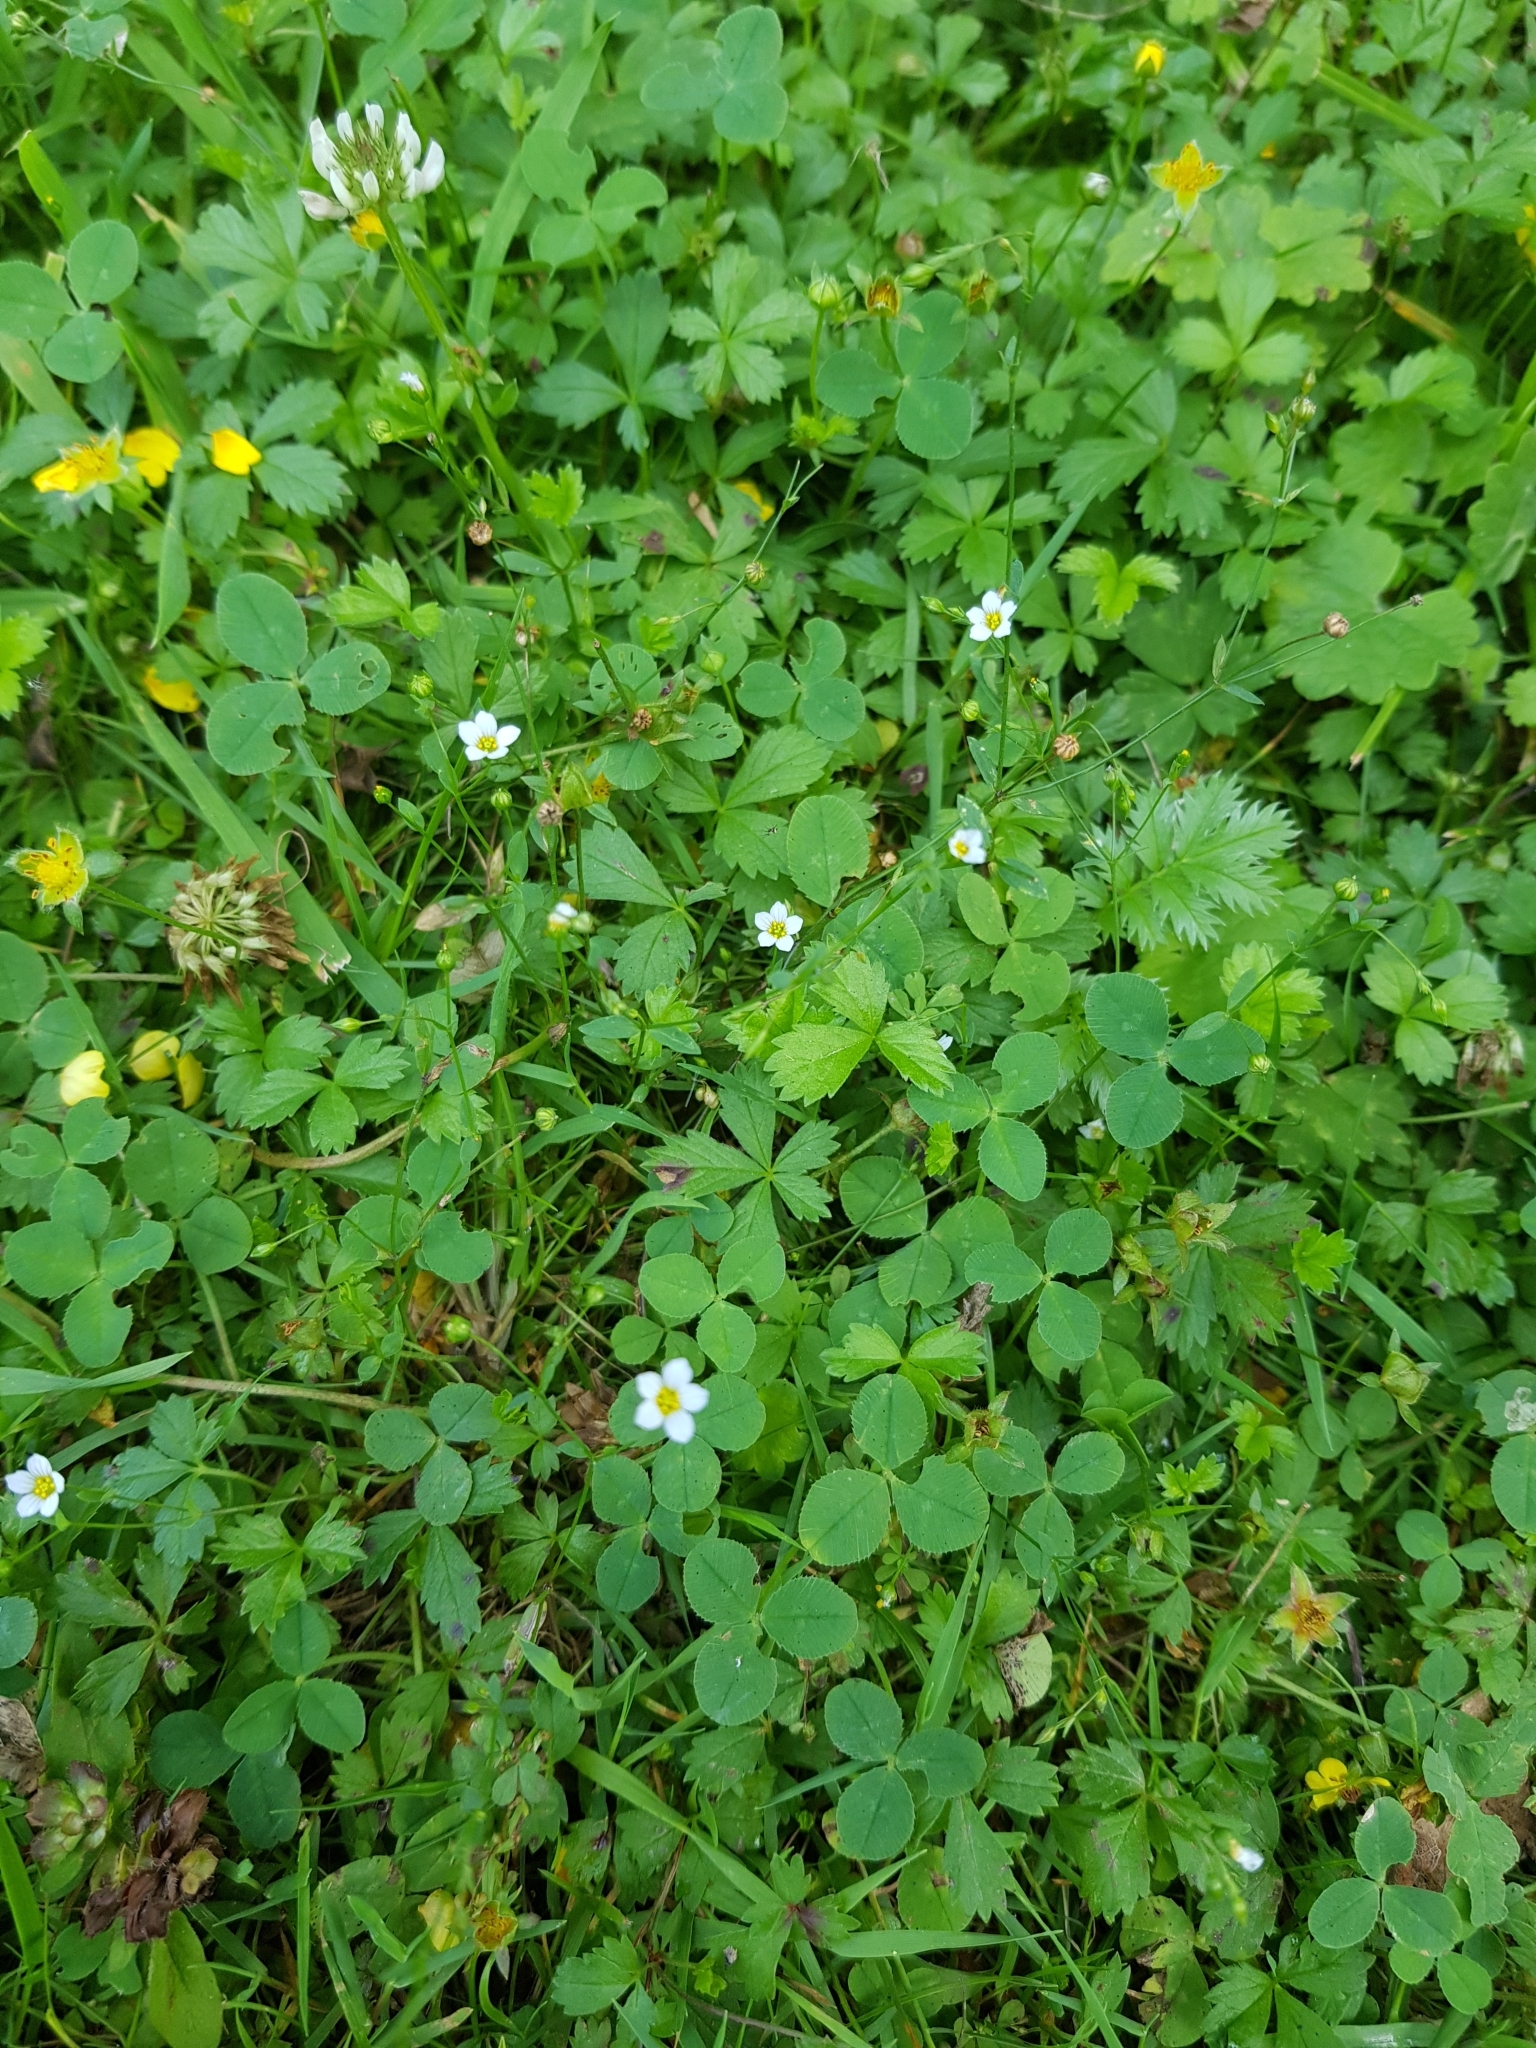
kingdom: Plantae
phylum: Tracheophyta
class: Magnoliopsida
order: Malpighiales
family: Linaceae
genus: Linum
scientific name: Linum catharticum
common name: Fairy flax
